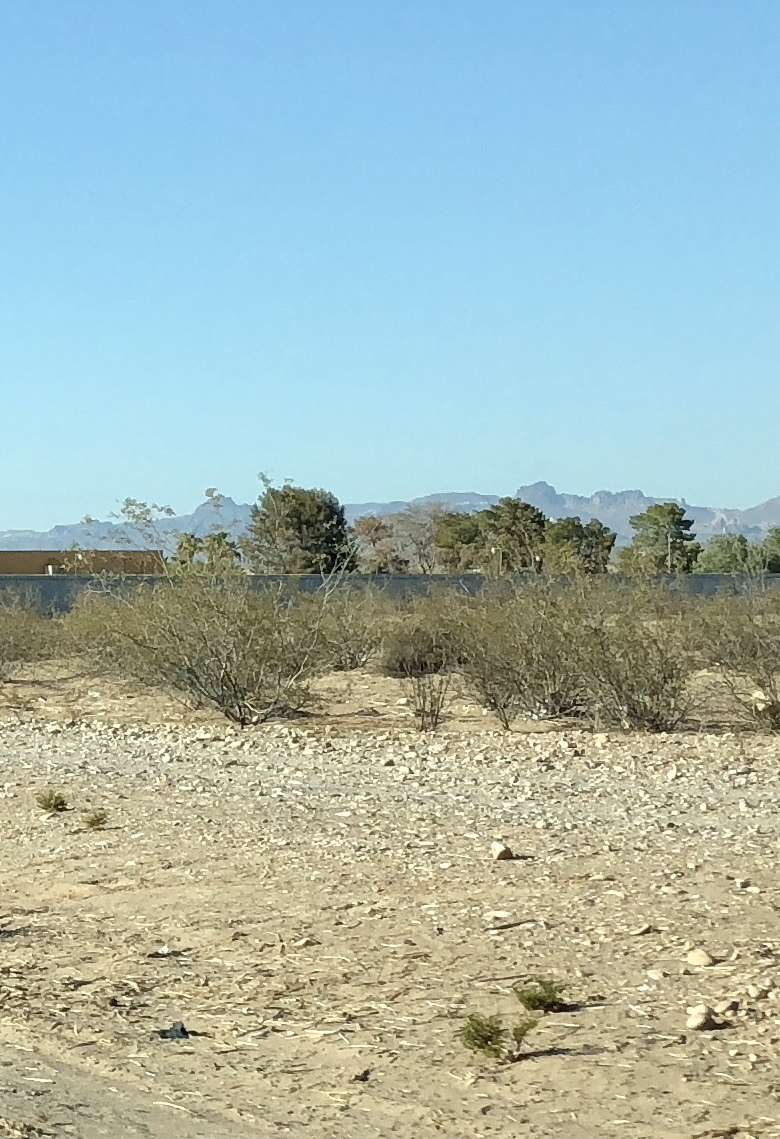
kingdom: Plantae
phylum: Tracheophyta
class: Magnoliopsida
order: Zygophyllales
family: Zygophyllaceae
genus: Larrea
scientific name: Larrea tridentata
